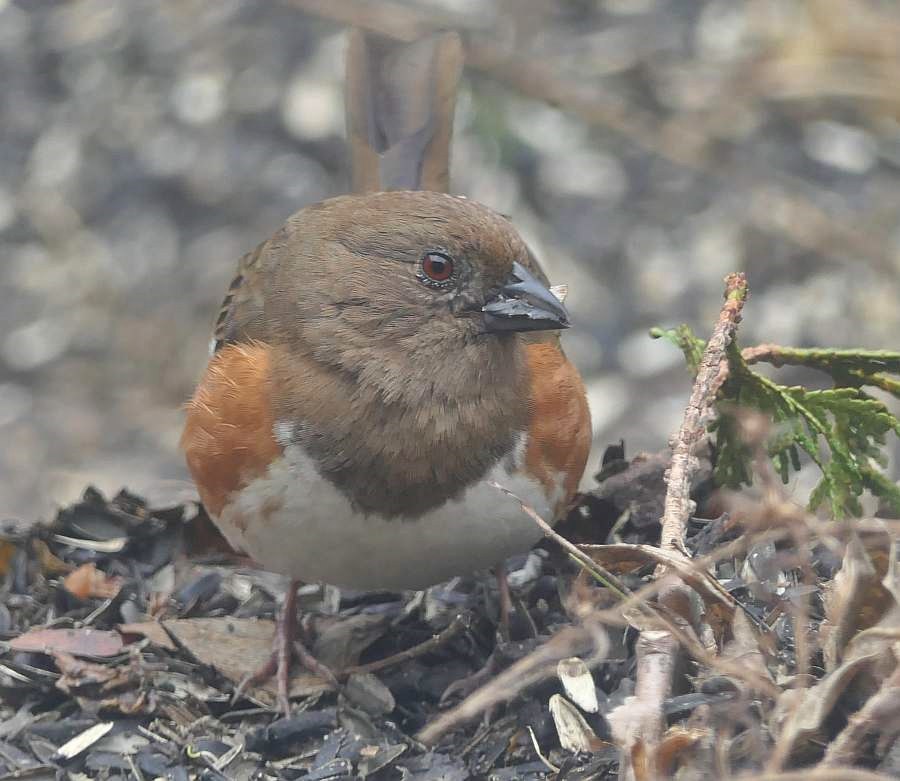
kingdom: Animalia
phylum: Chordata
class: Aves
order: Passeriformes
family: Passerellidae
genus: Pipilo
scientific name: Pipilo erythrophthalmus
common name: Eastern towhee
